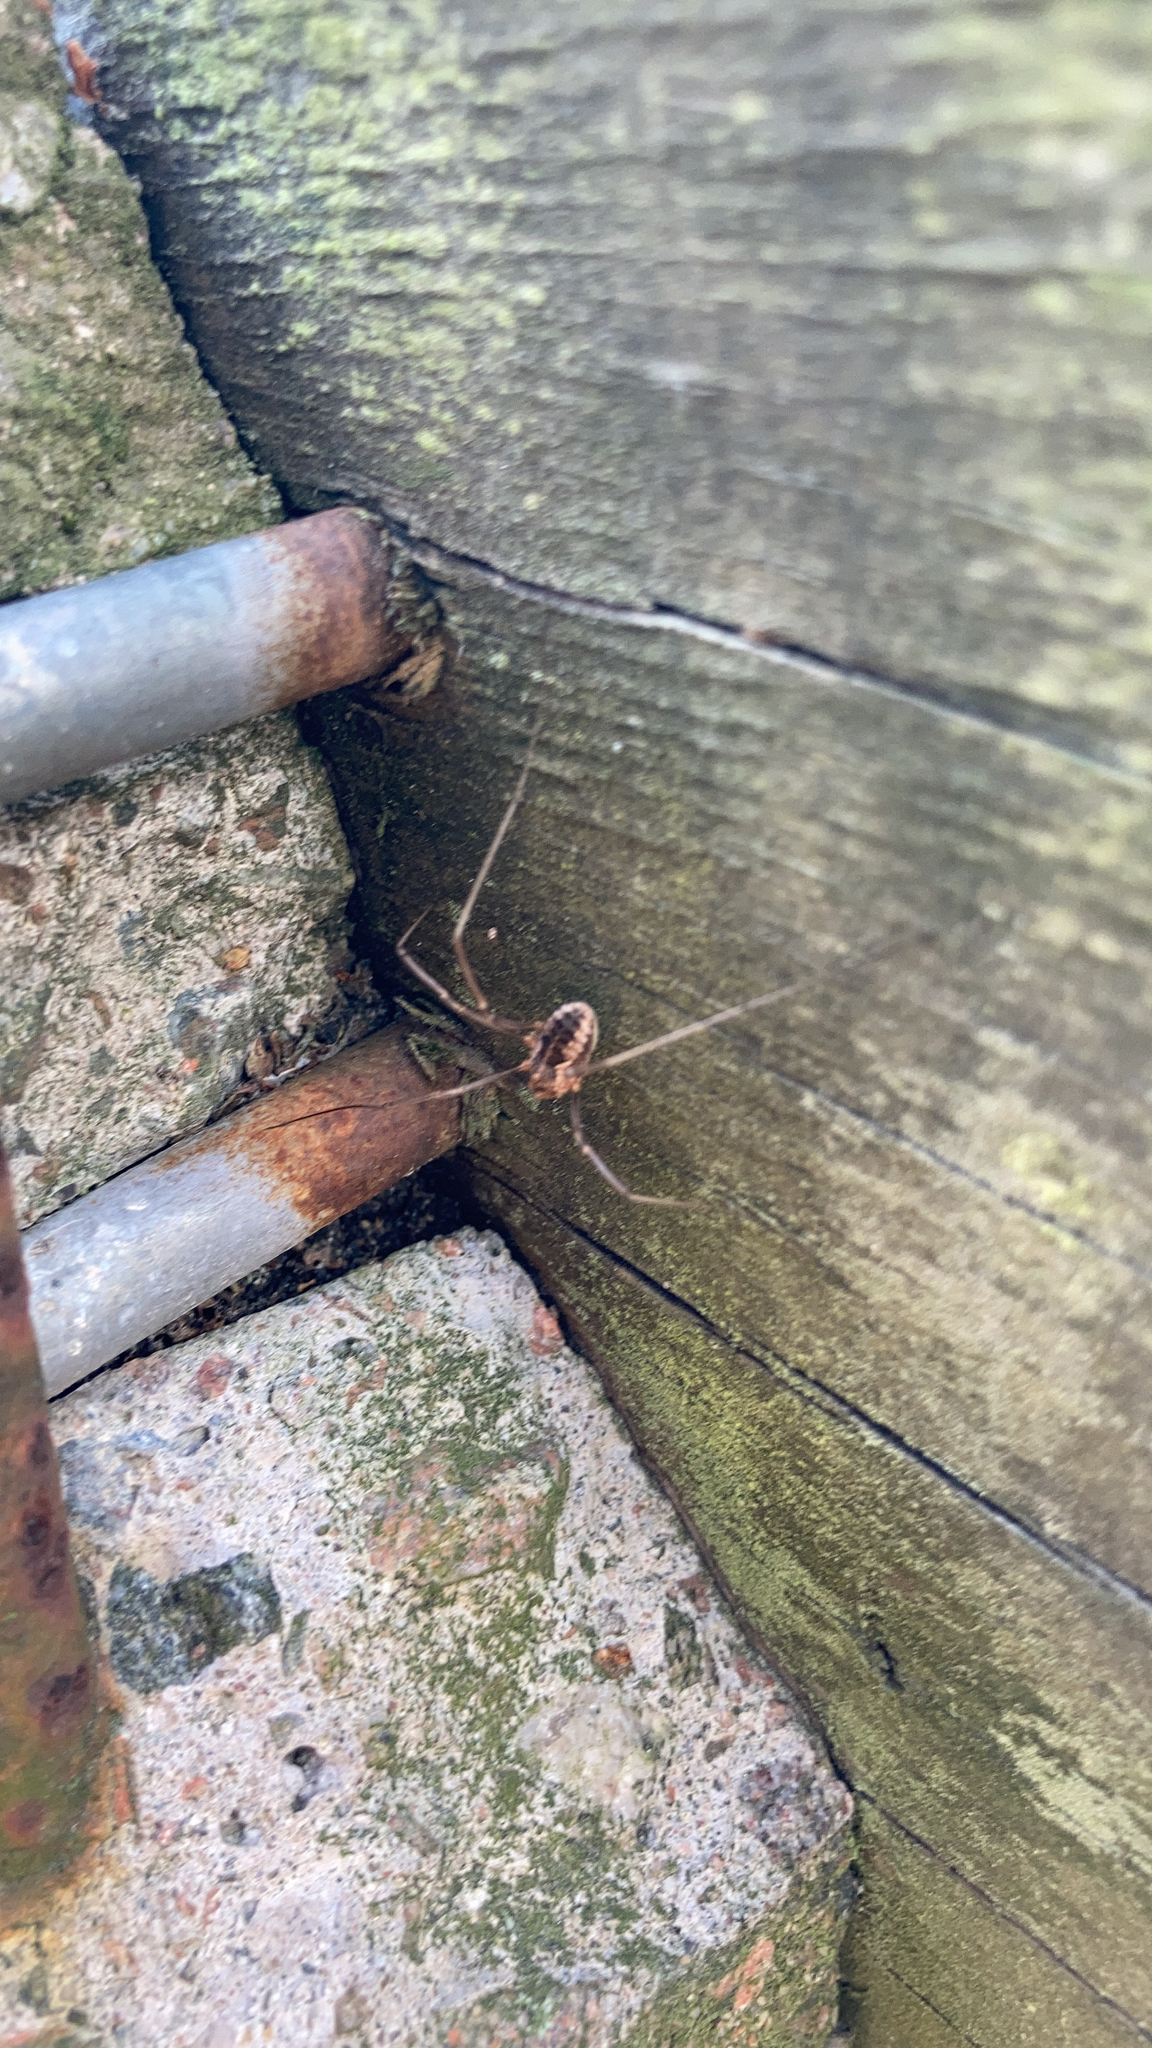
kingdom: Animalia
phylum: Arthropoda
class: Arachnida
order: Opiliones
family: Phalangiidae
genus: Phalangium
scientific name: Phalangium opilio
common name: Daddy longleg
